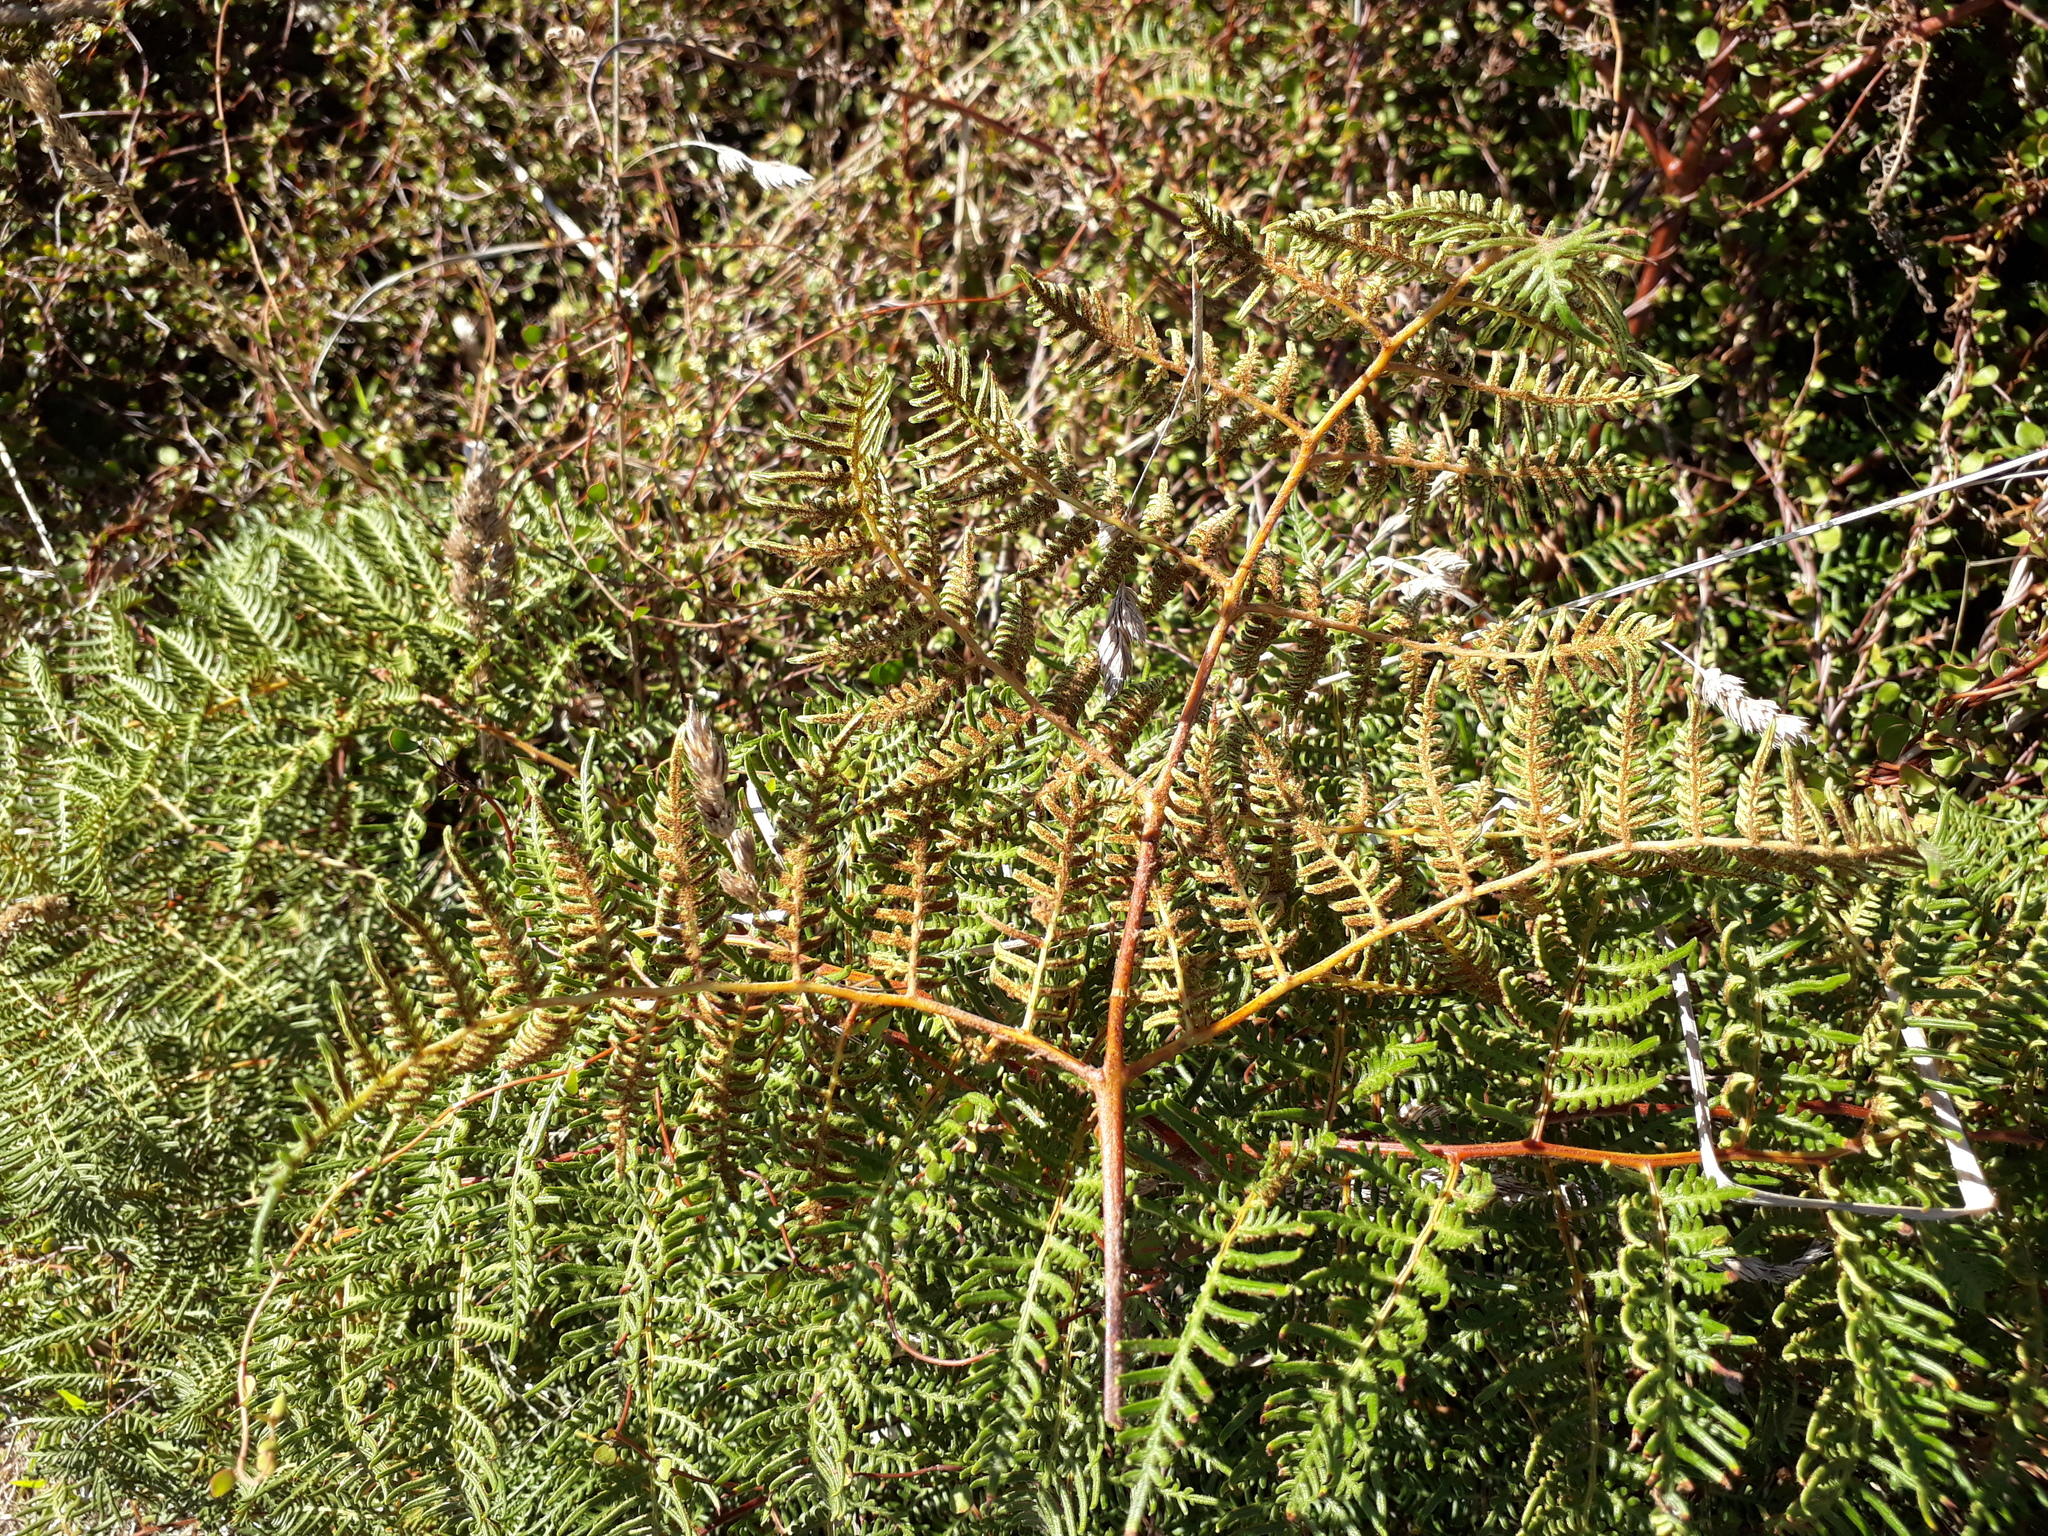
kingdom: Plantae
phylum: Tracheophyta
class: Polypodiopsida
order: Polypodiales
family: Dennstaedtiaceae
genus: Pteridium
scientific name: Pteridium esculentum
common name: Bracken fern
